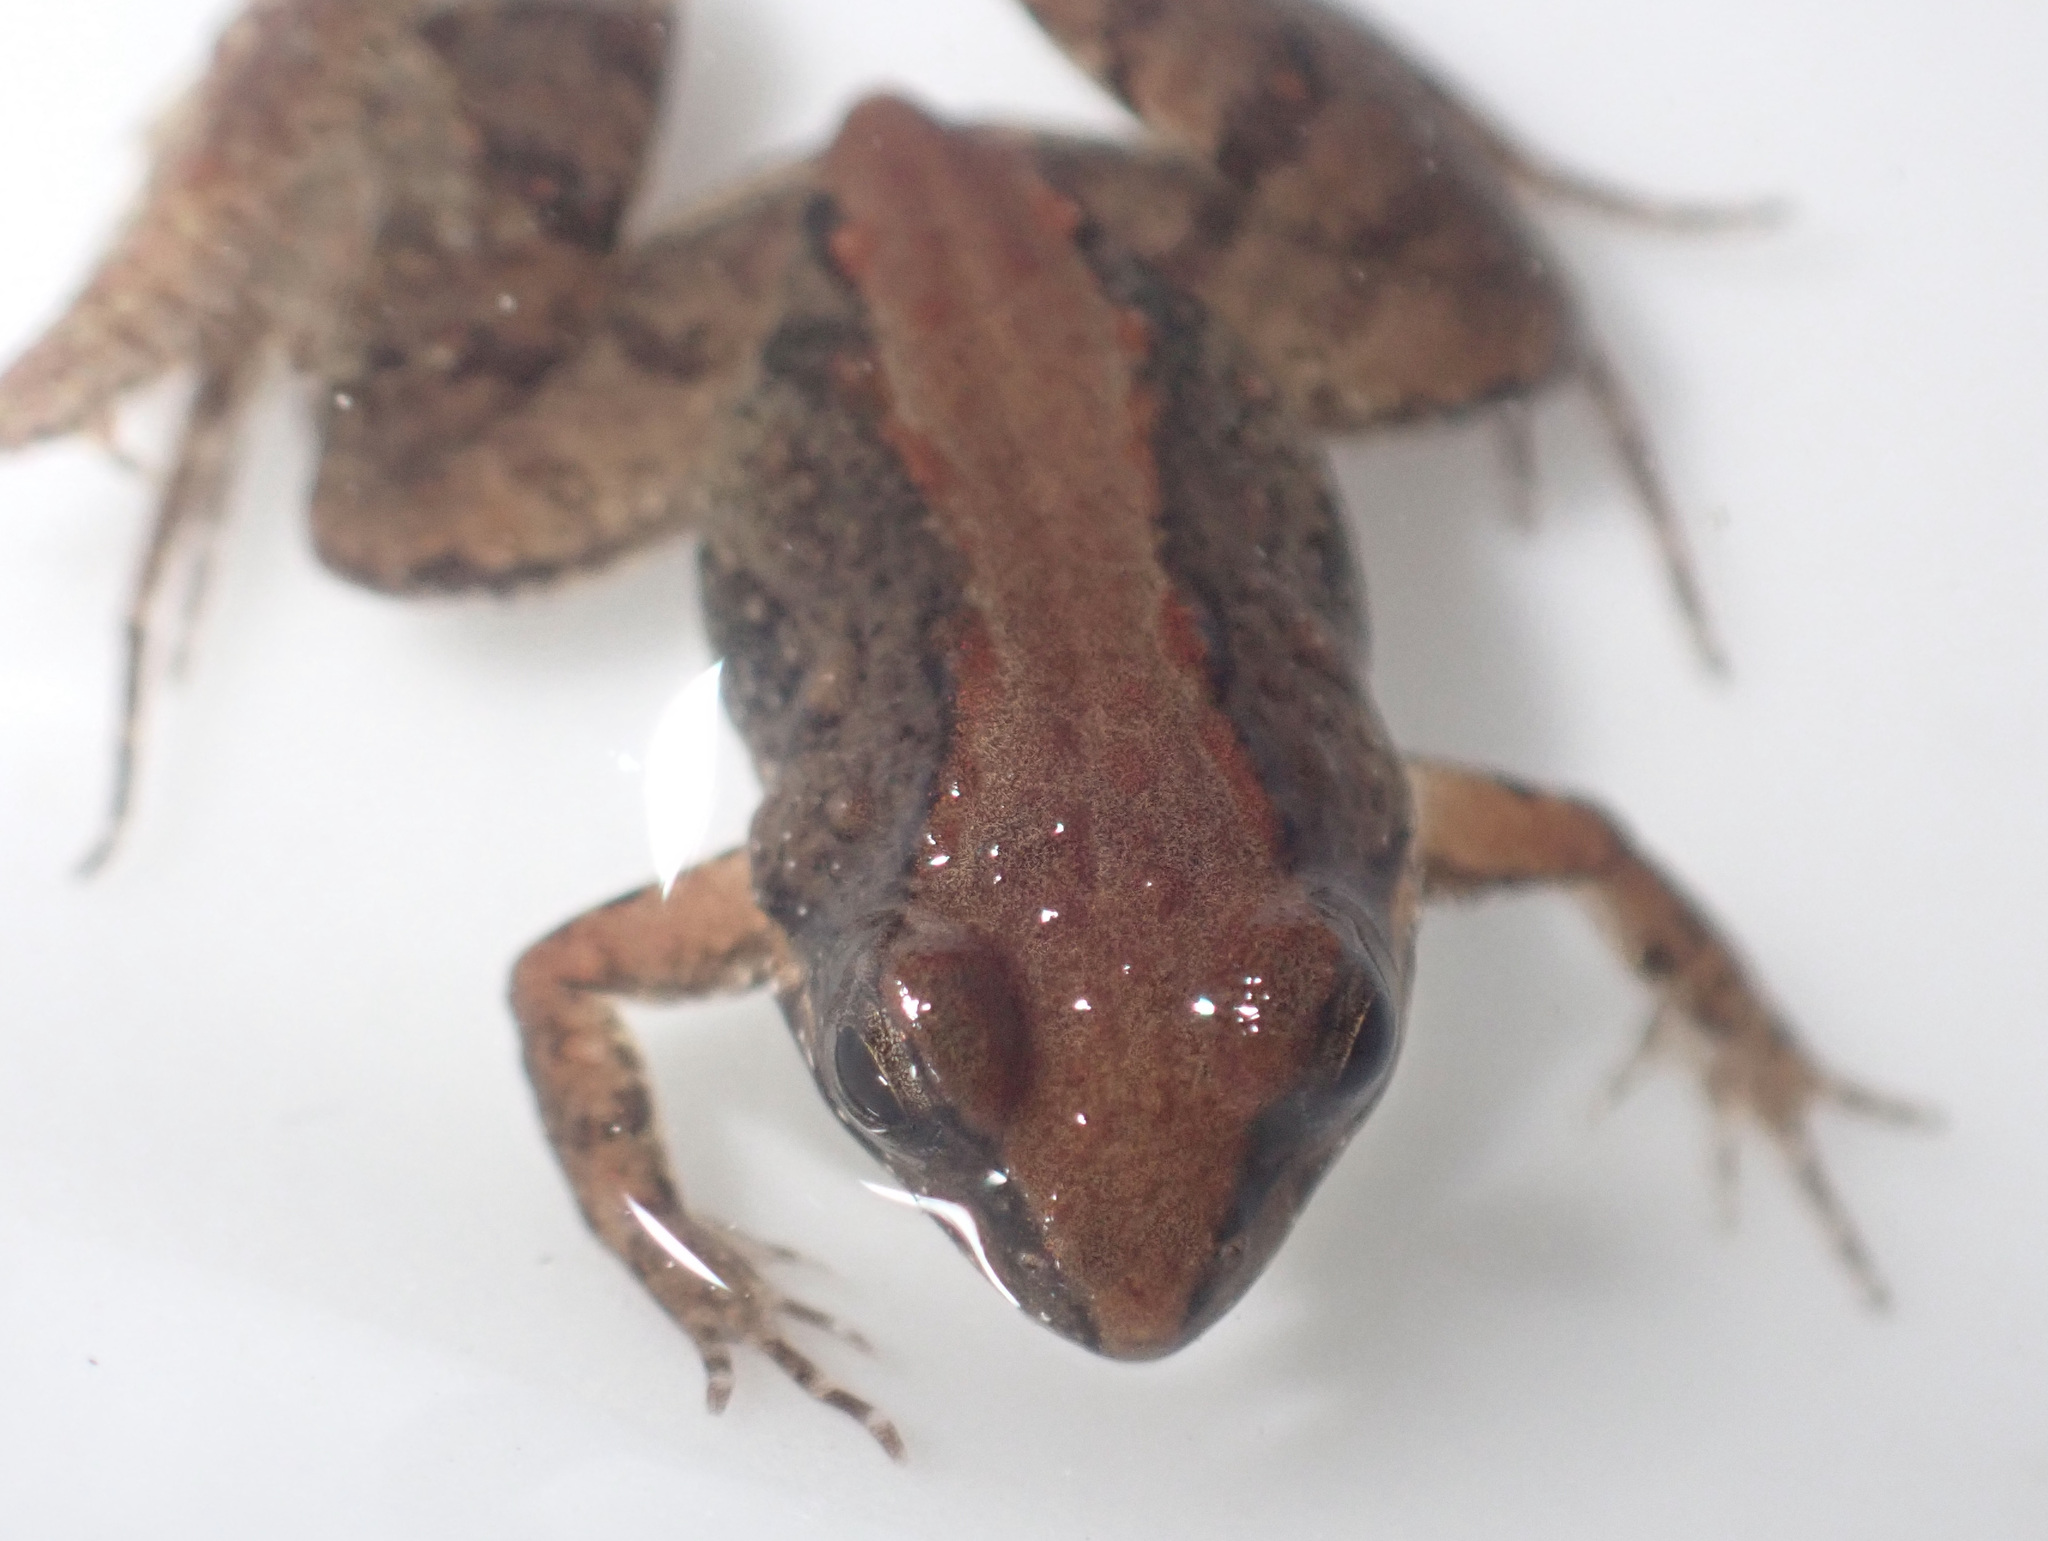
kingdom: Animalia
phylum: Chordata
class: Amphibia
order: Anura
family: Phrynobatrachidae
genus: Phrynobatrachus
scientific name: Phrynobatrachus parvulus
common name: Dwarf puddle frog
